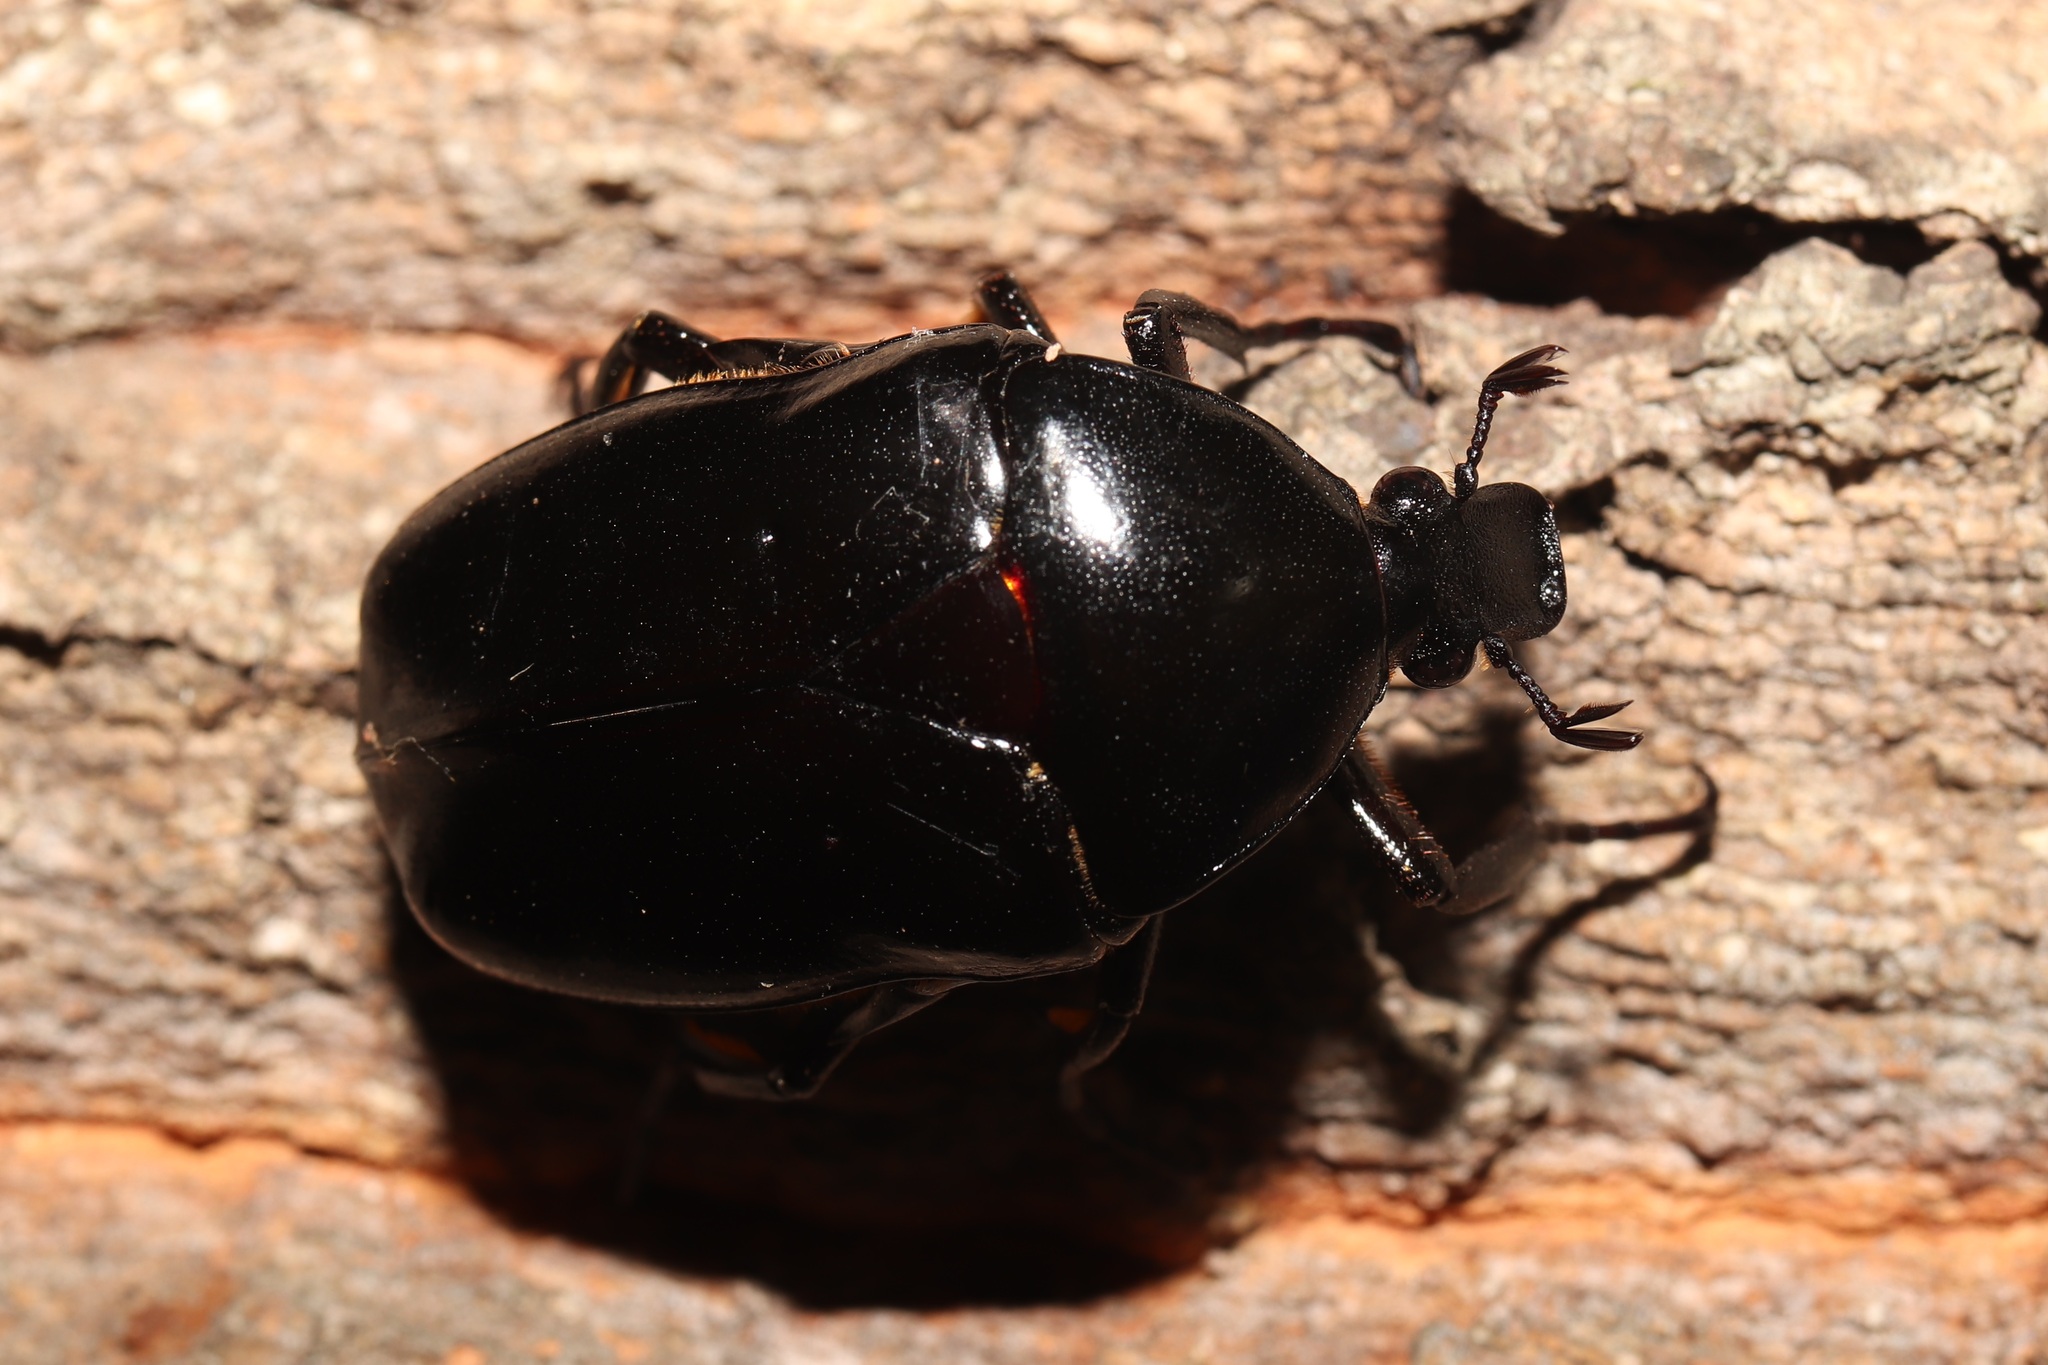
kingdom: Animalia
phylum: Arthropoda
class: Insecta
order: Coleoptera
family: Scarabaeidae
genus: Rhomborhina
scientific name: Rhomborhina polita
